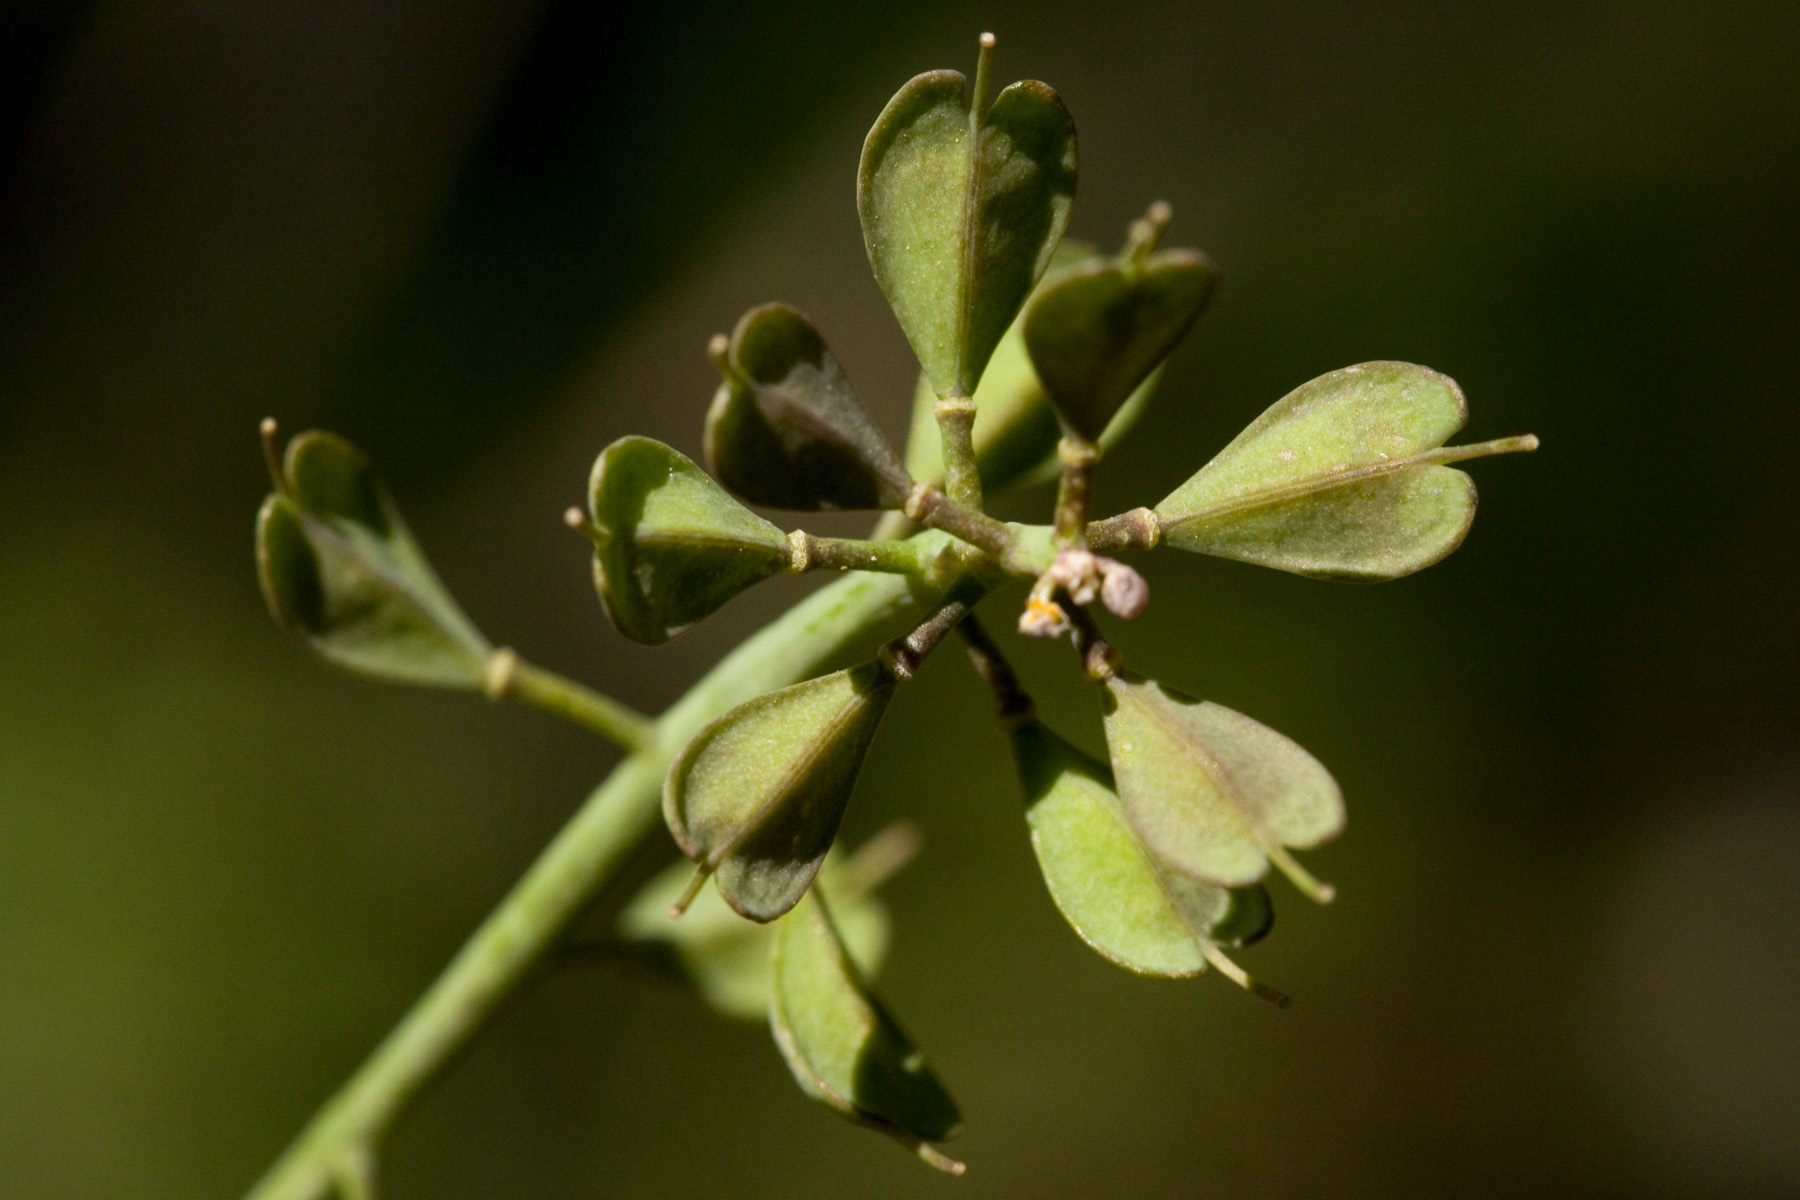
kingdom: Plantae
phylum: Tracheophyta
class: Magnoliopsida
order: Brassicales
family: Brassicaceae
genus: Noccaea
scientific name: Noccaea fendleri
